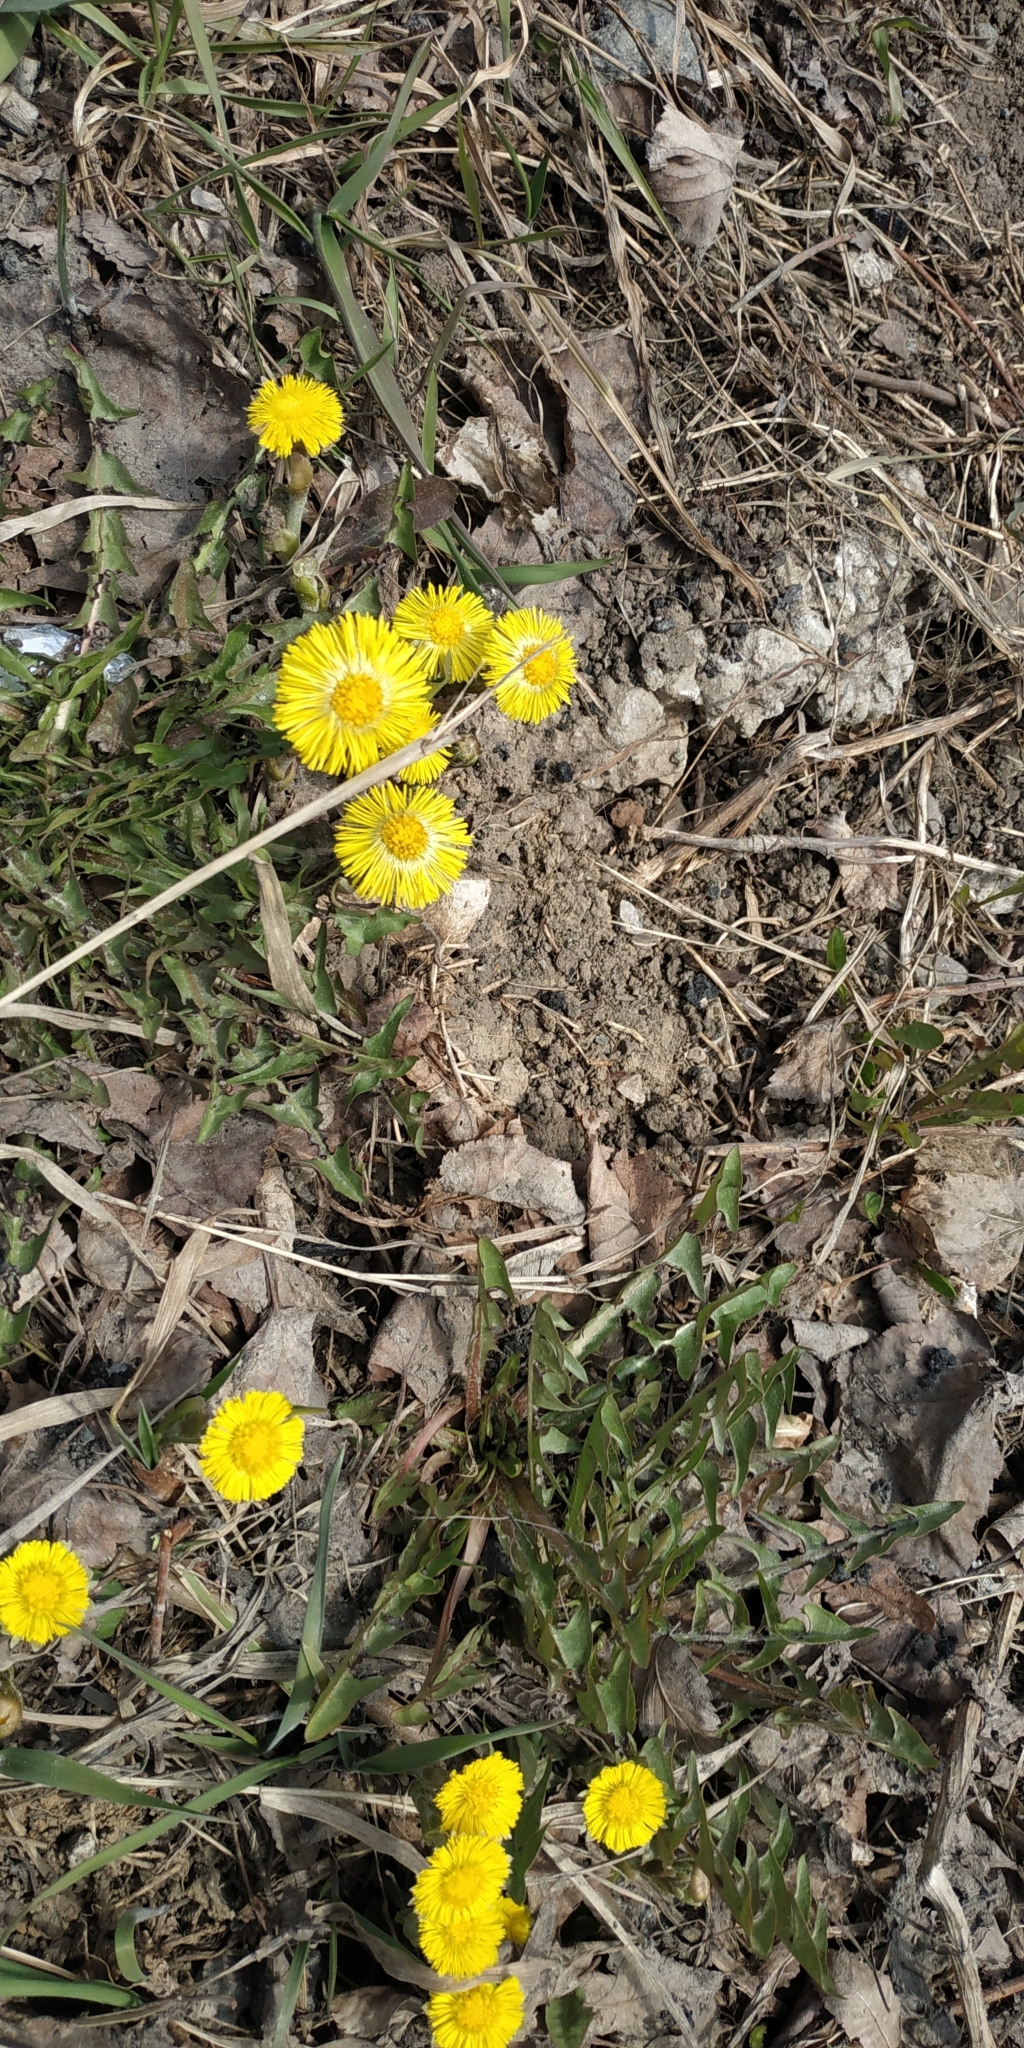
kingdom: Plantae
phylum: Tracheophyta
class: Magnoliopsida
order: Asterales
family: Asteraceae
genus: Tussilago
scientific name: Tussilago farfara
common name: Coltsfoot
